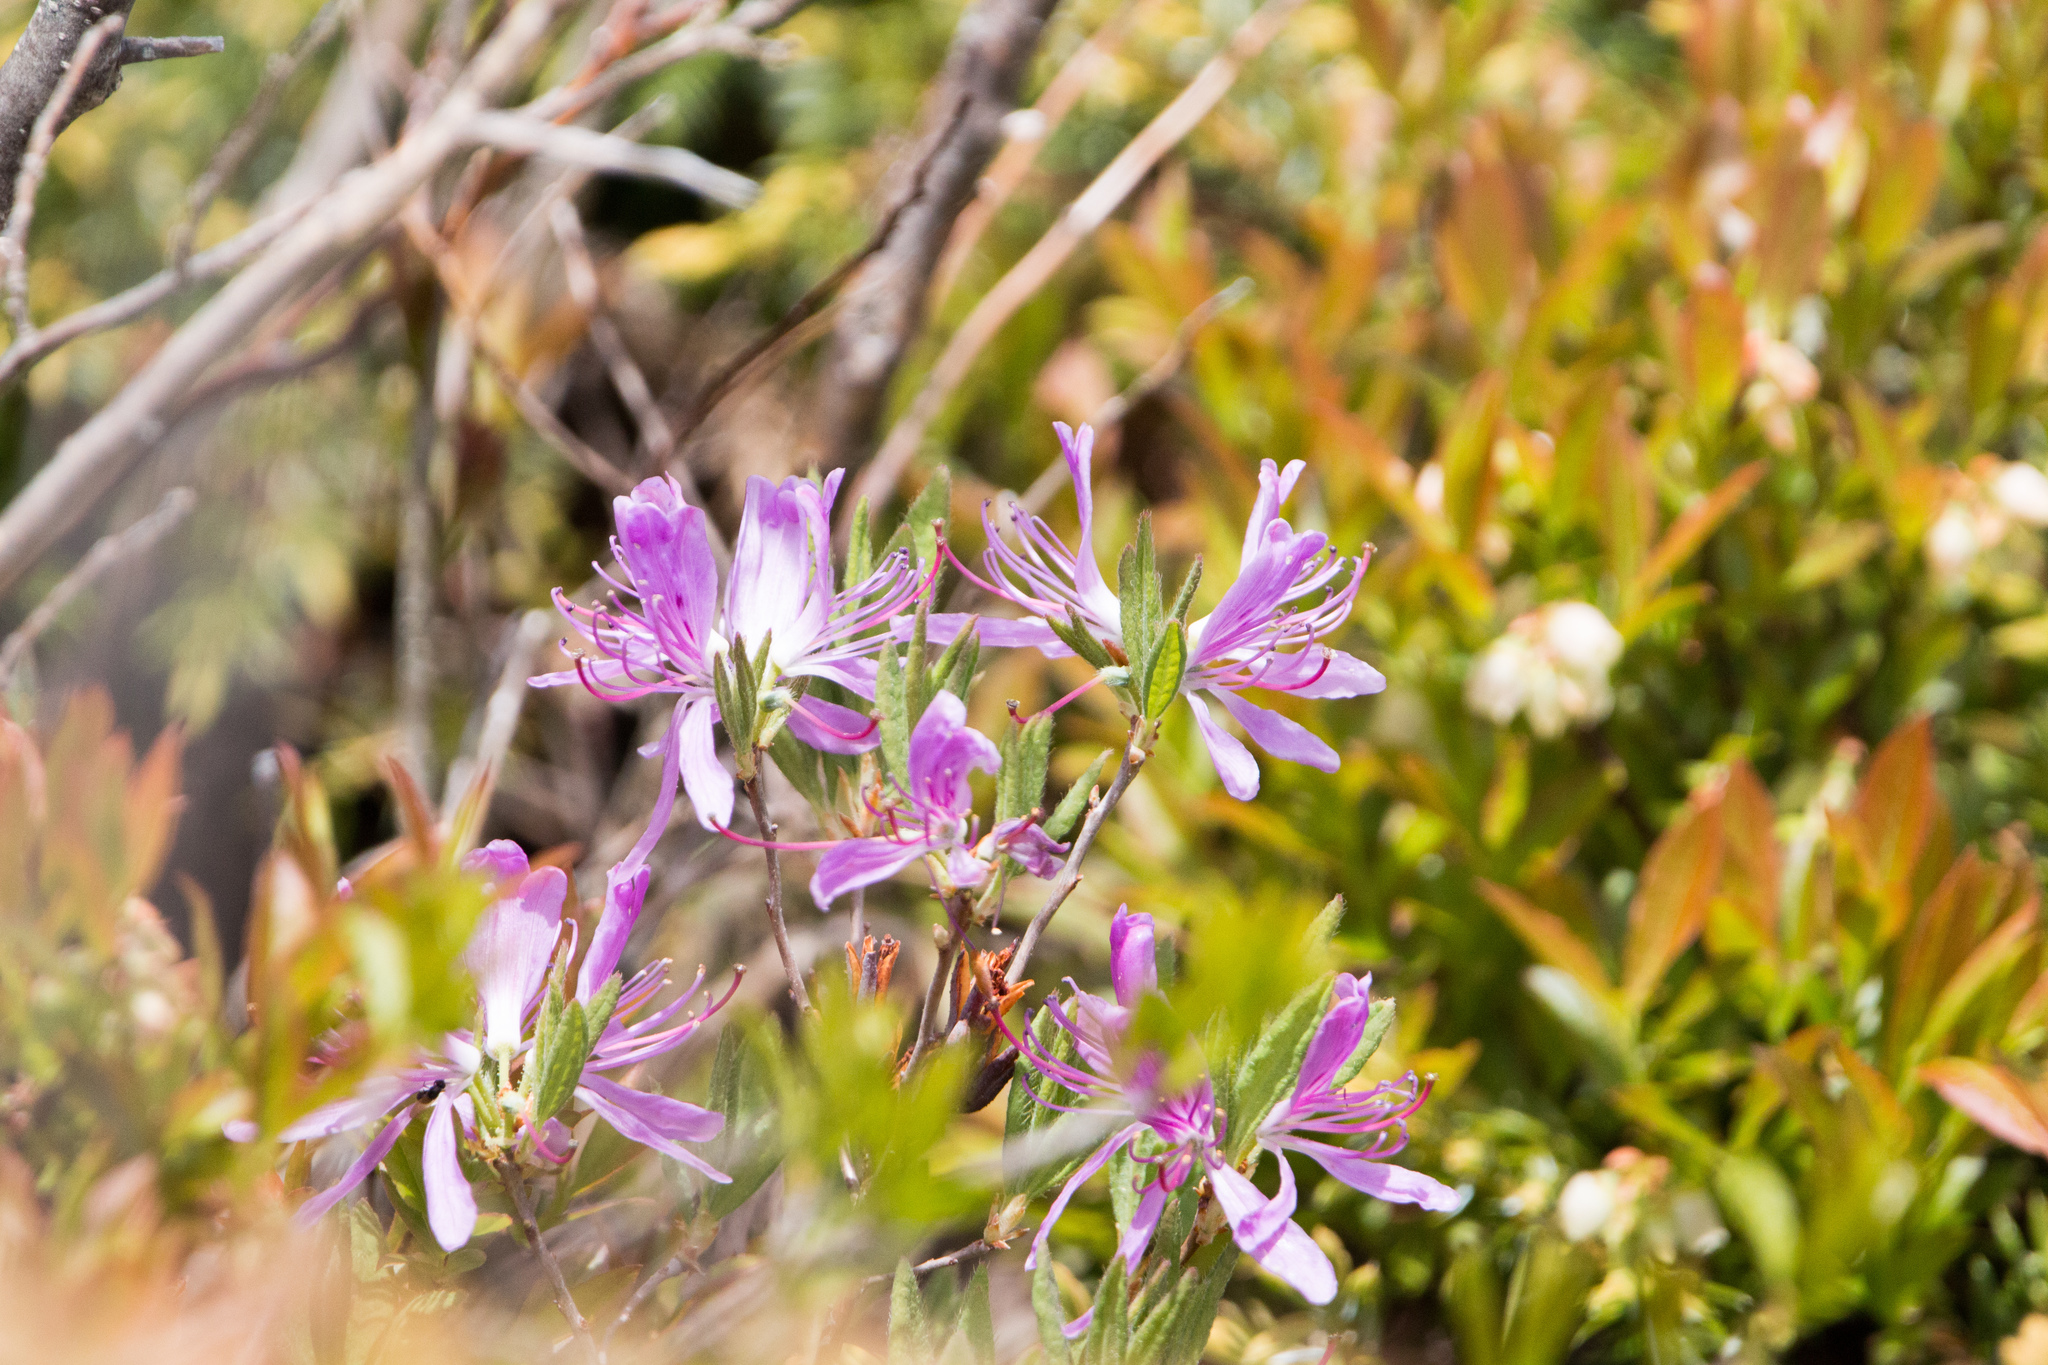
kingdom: Plantae
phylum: Tracheophyta
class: Magnoliopsida
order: Ericales
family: Ericaceae
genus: Rhododendron
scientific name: Rhododendron canadense
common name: Rhodora
